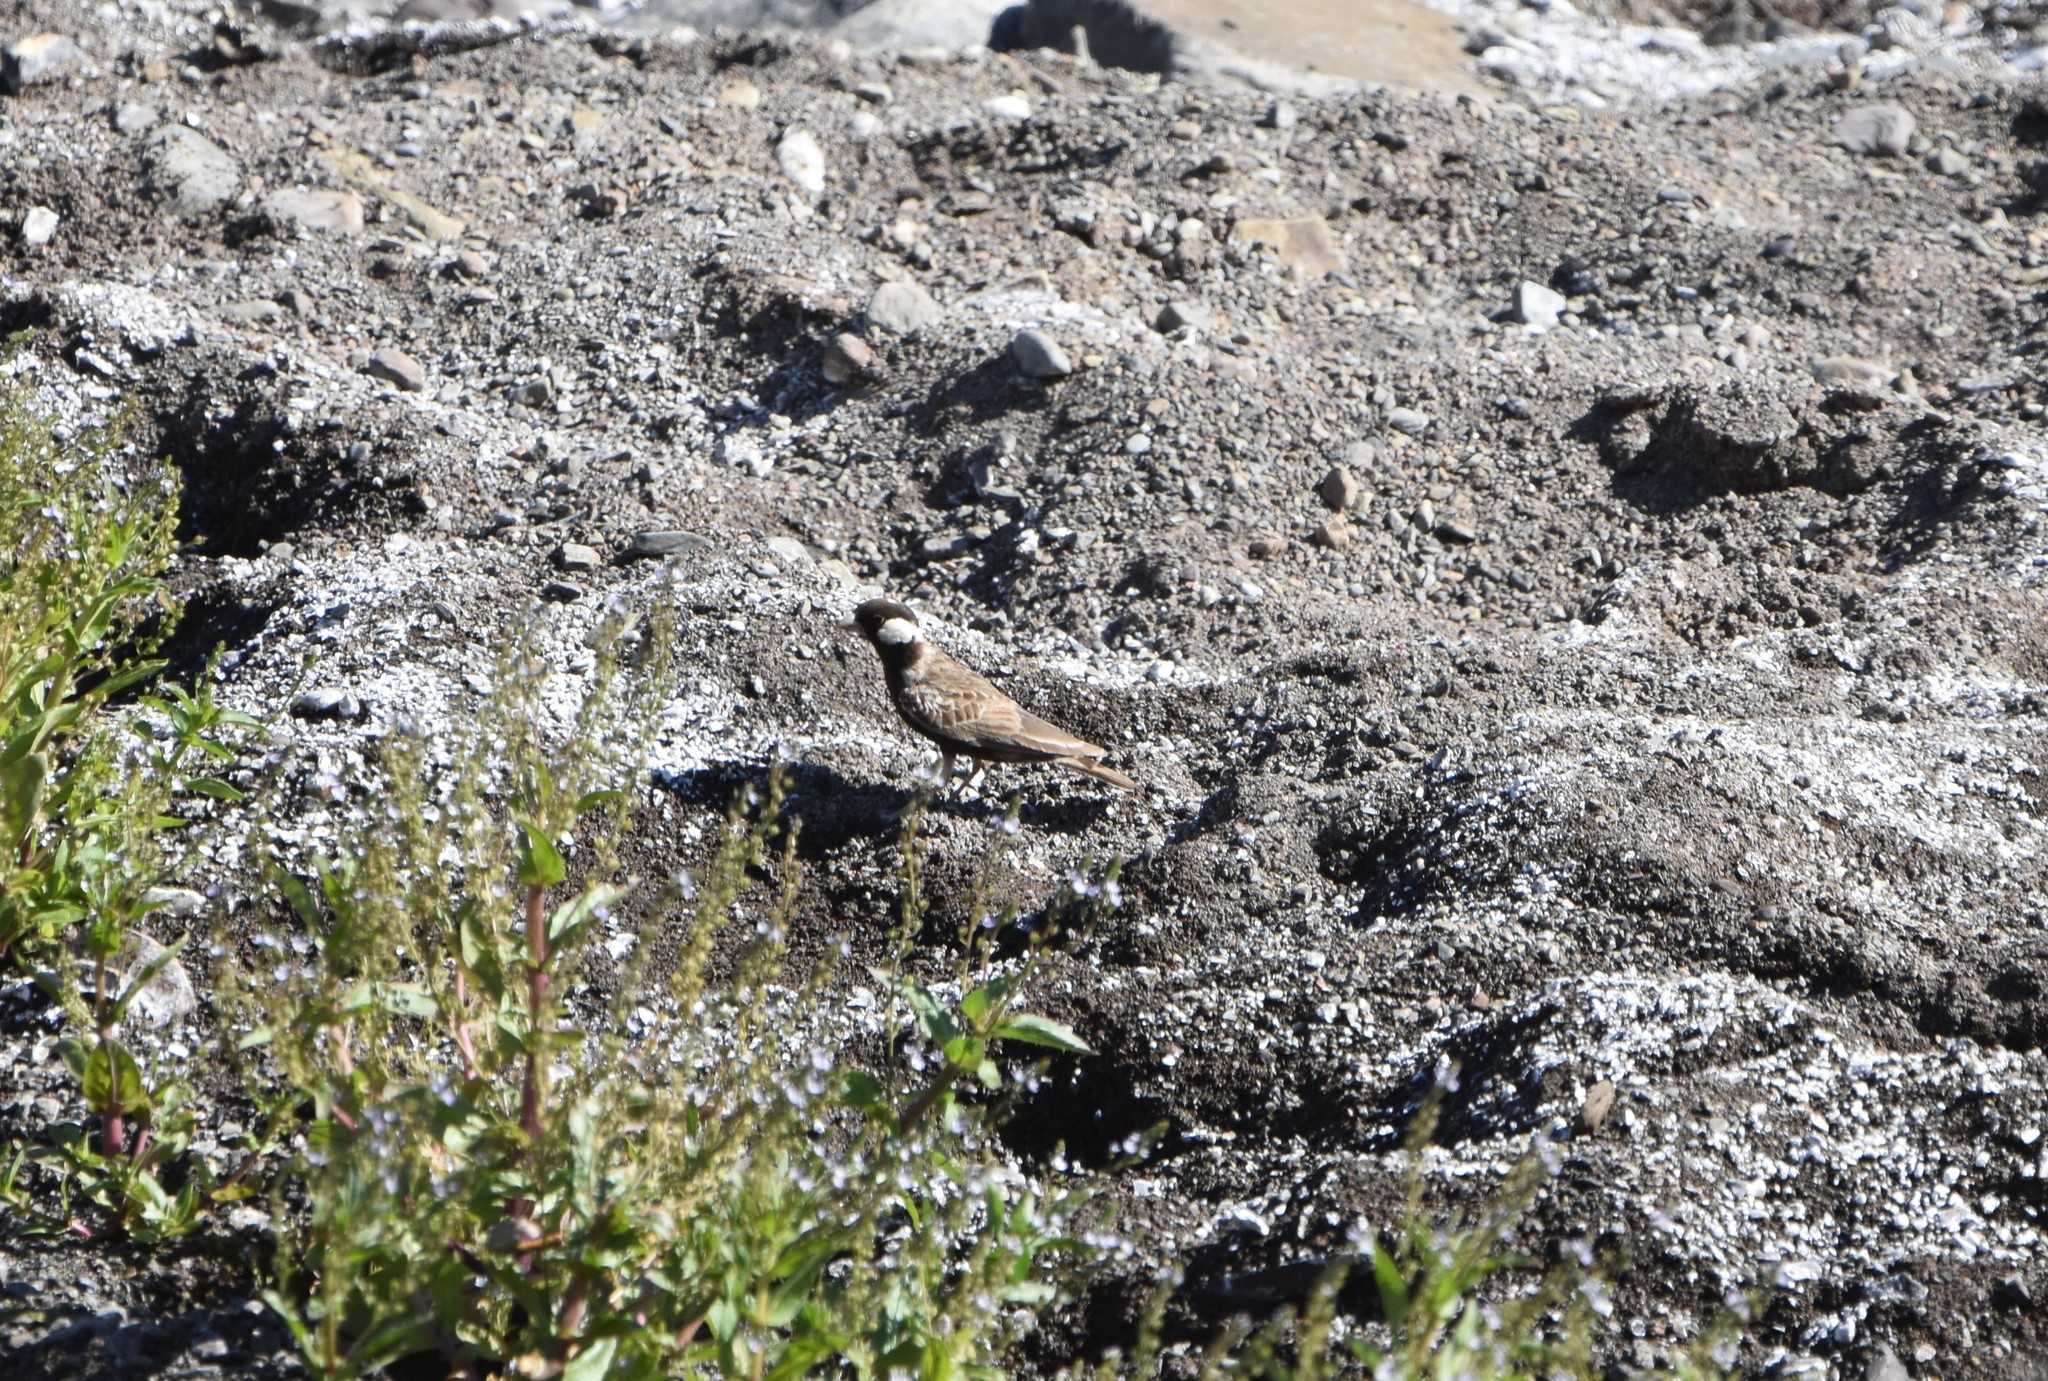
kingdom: Animalia
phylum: Chordata
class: Aves
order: Passeriformes
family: Alaudidae
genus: Eremopterix
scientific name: Eremopterix verticalis
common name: Grey-backed sparrow-lark
